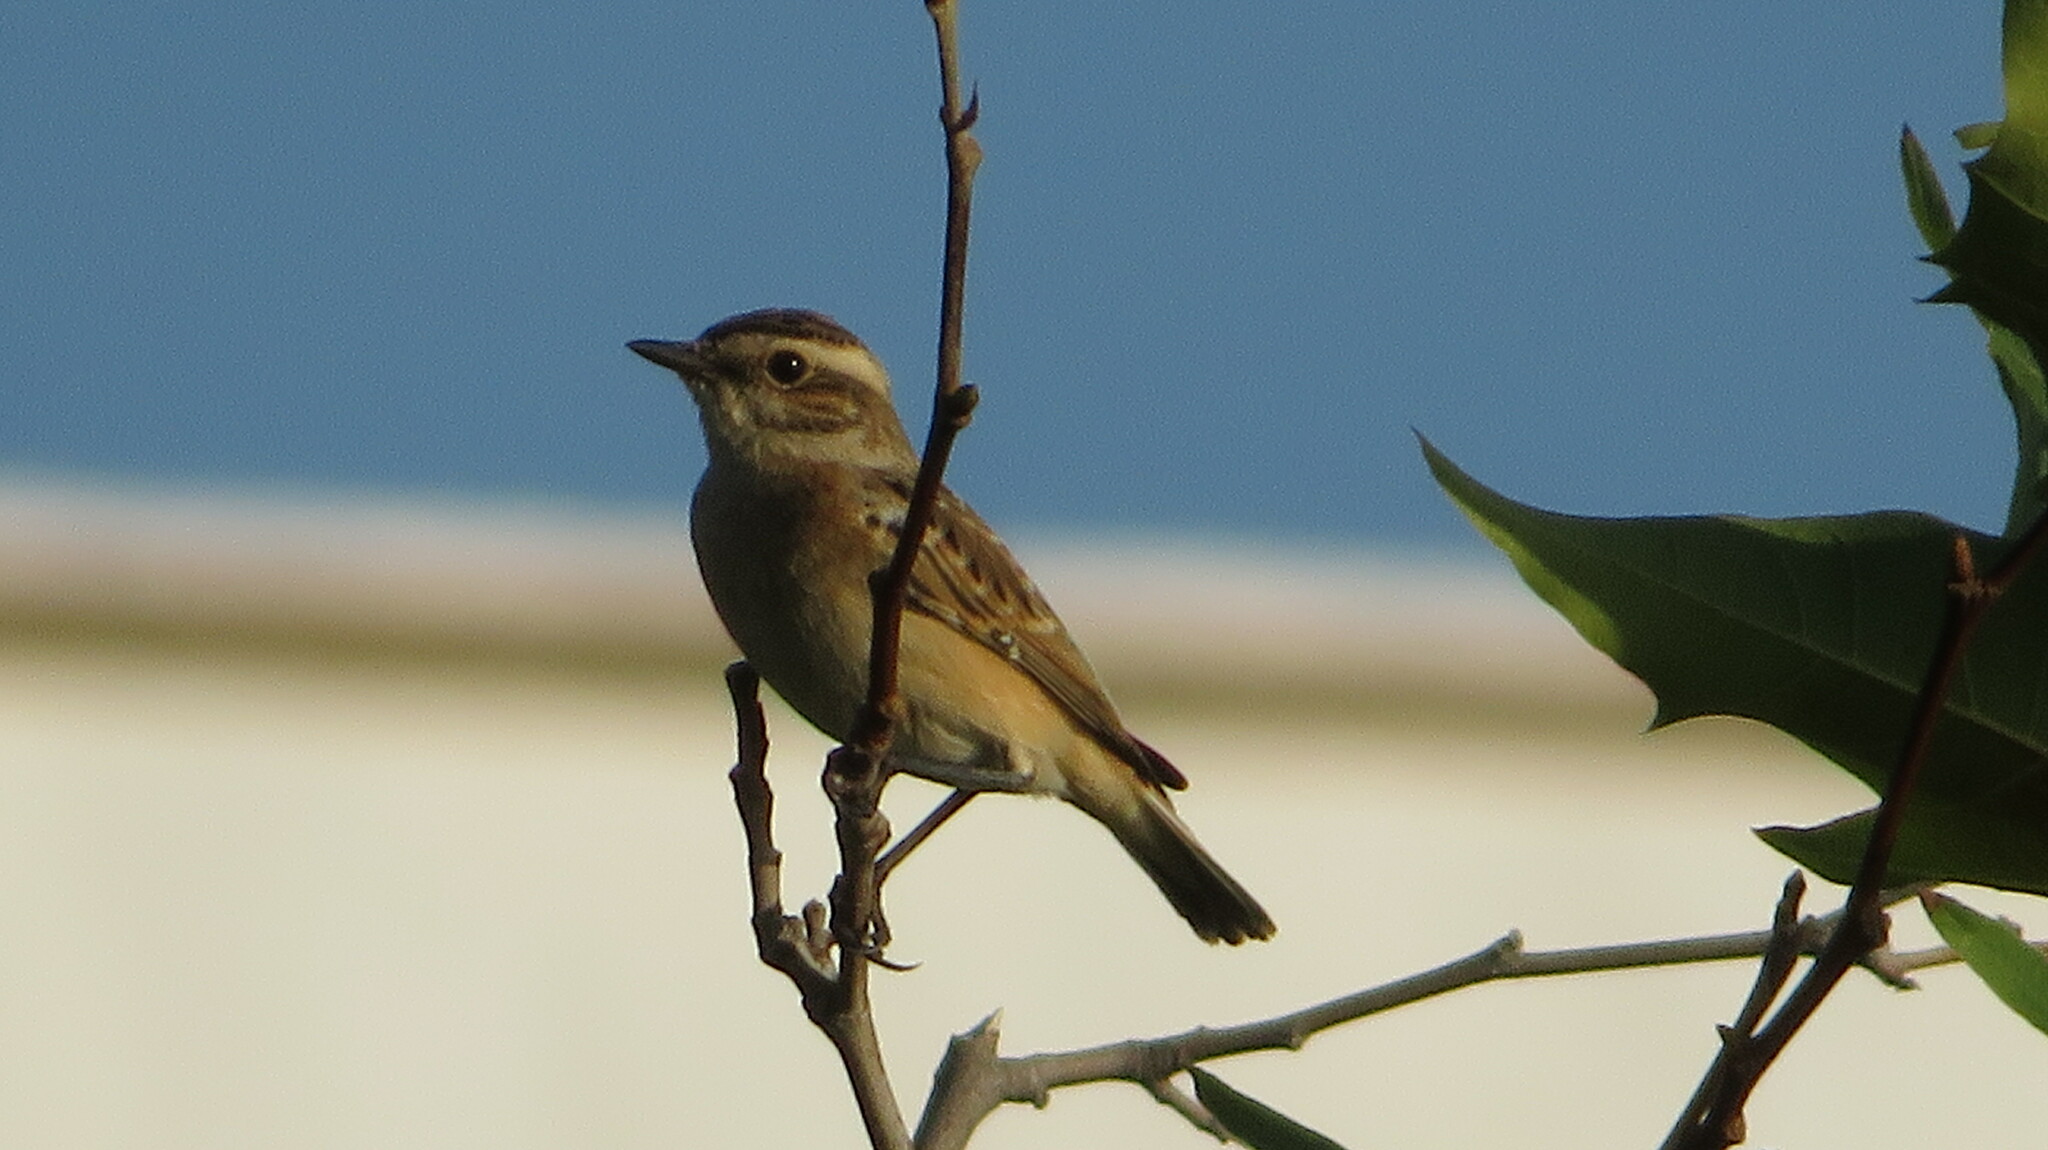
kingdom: Animalia
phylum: Chordata
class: Aves
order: Passeriformes
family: Muscicapidae
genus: Saxicola
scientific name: Saxicola rubetra
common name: Whinchat
